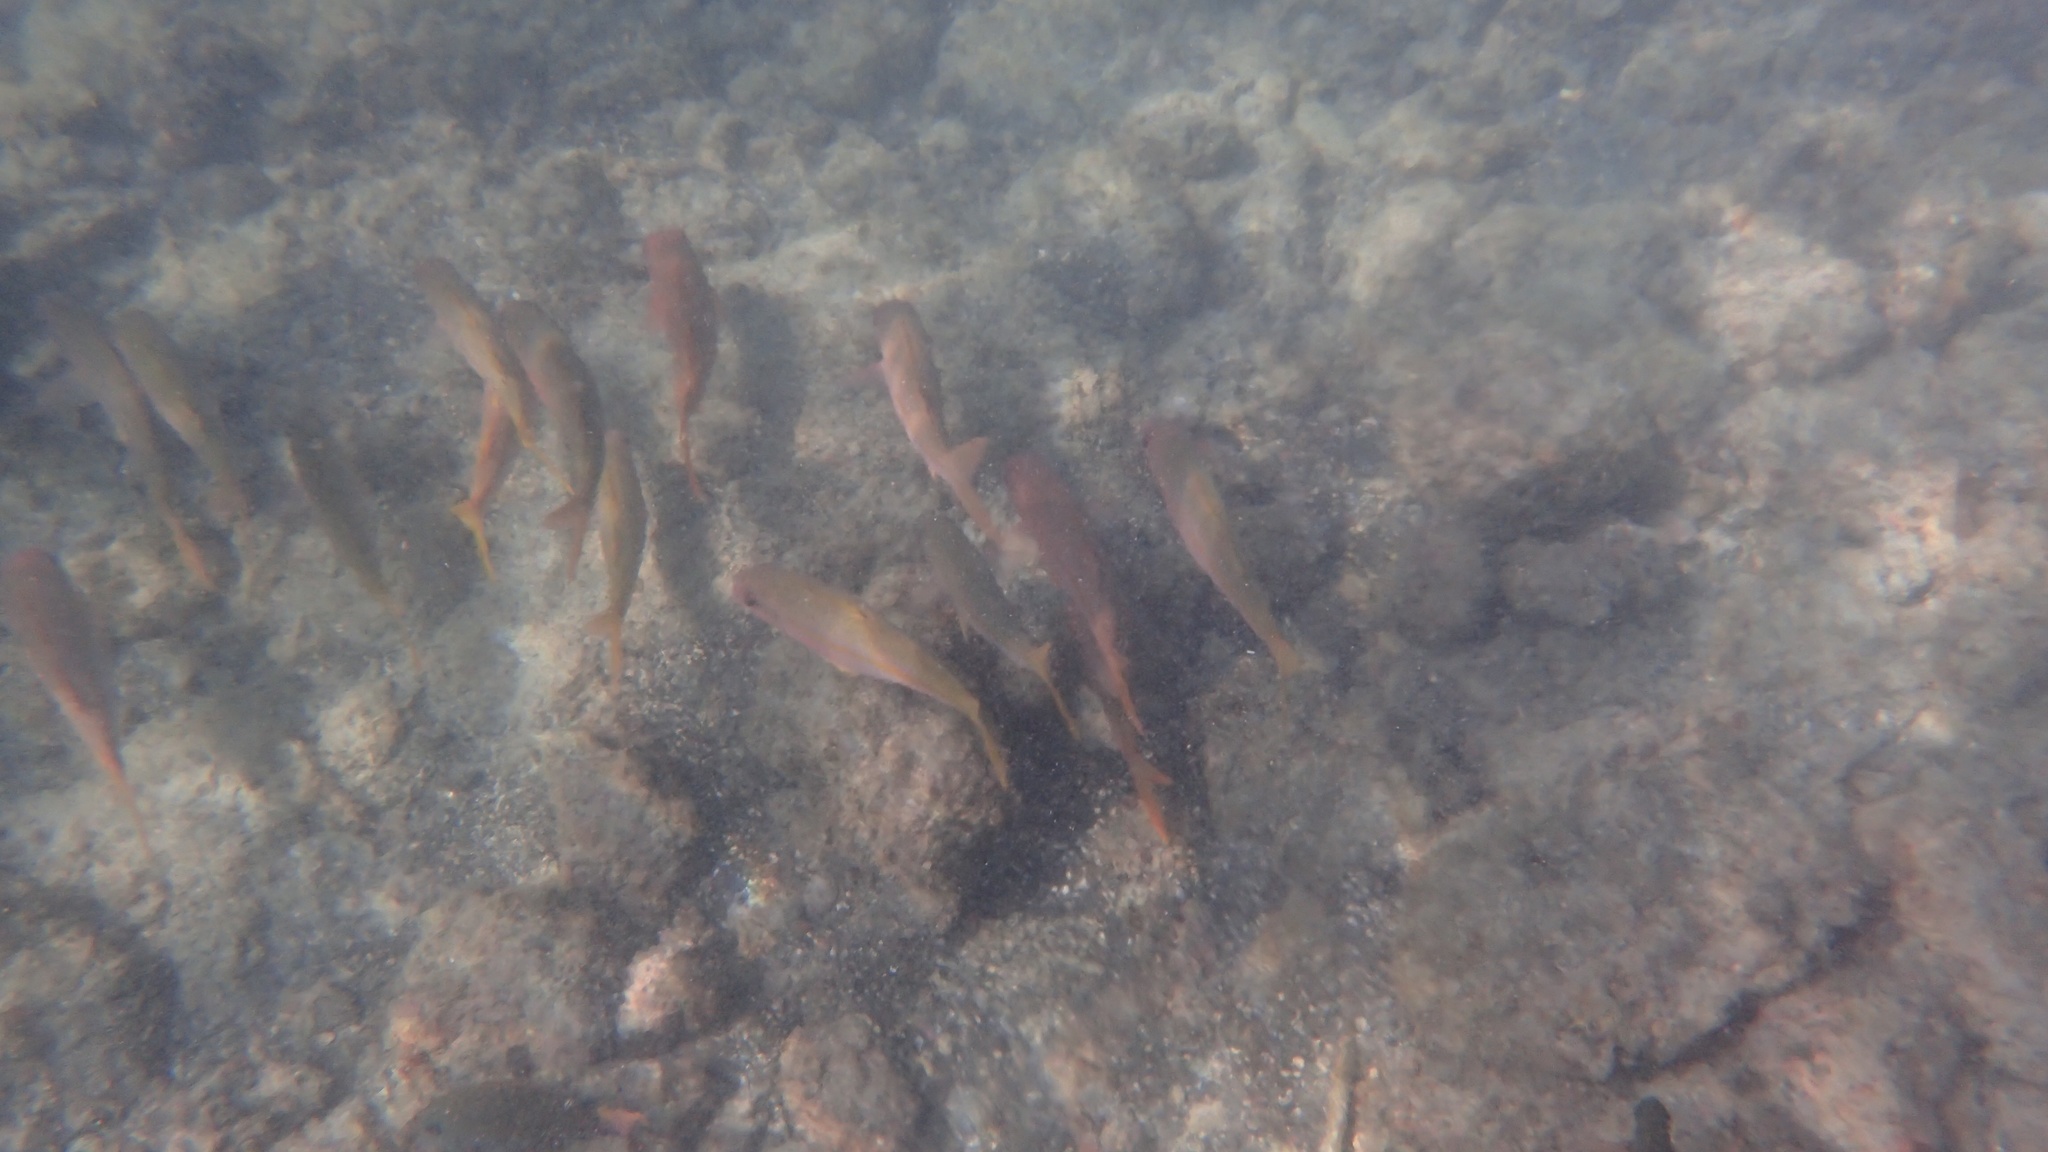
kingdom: Animalia
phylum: Chordata
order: Perciformes
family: Mullidae
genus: Mulloidichthys
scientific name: Mulloidichthys vanicolensis
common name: Yellowfin goatfish
